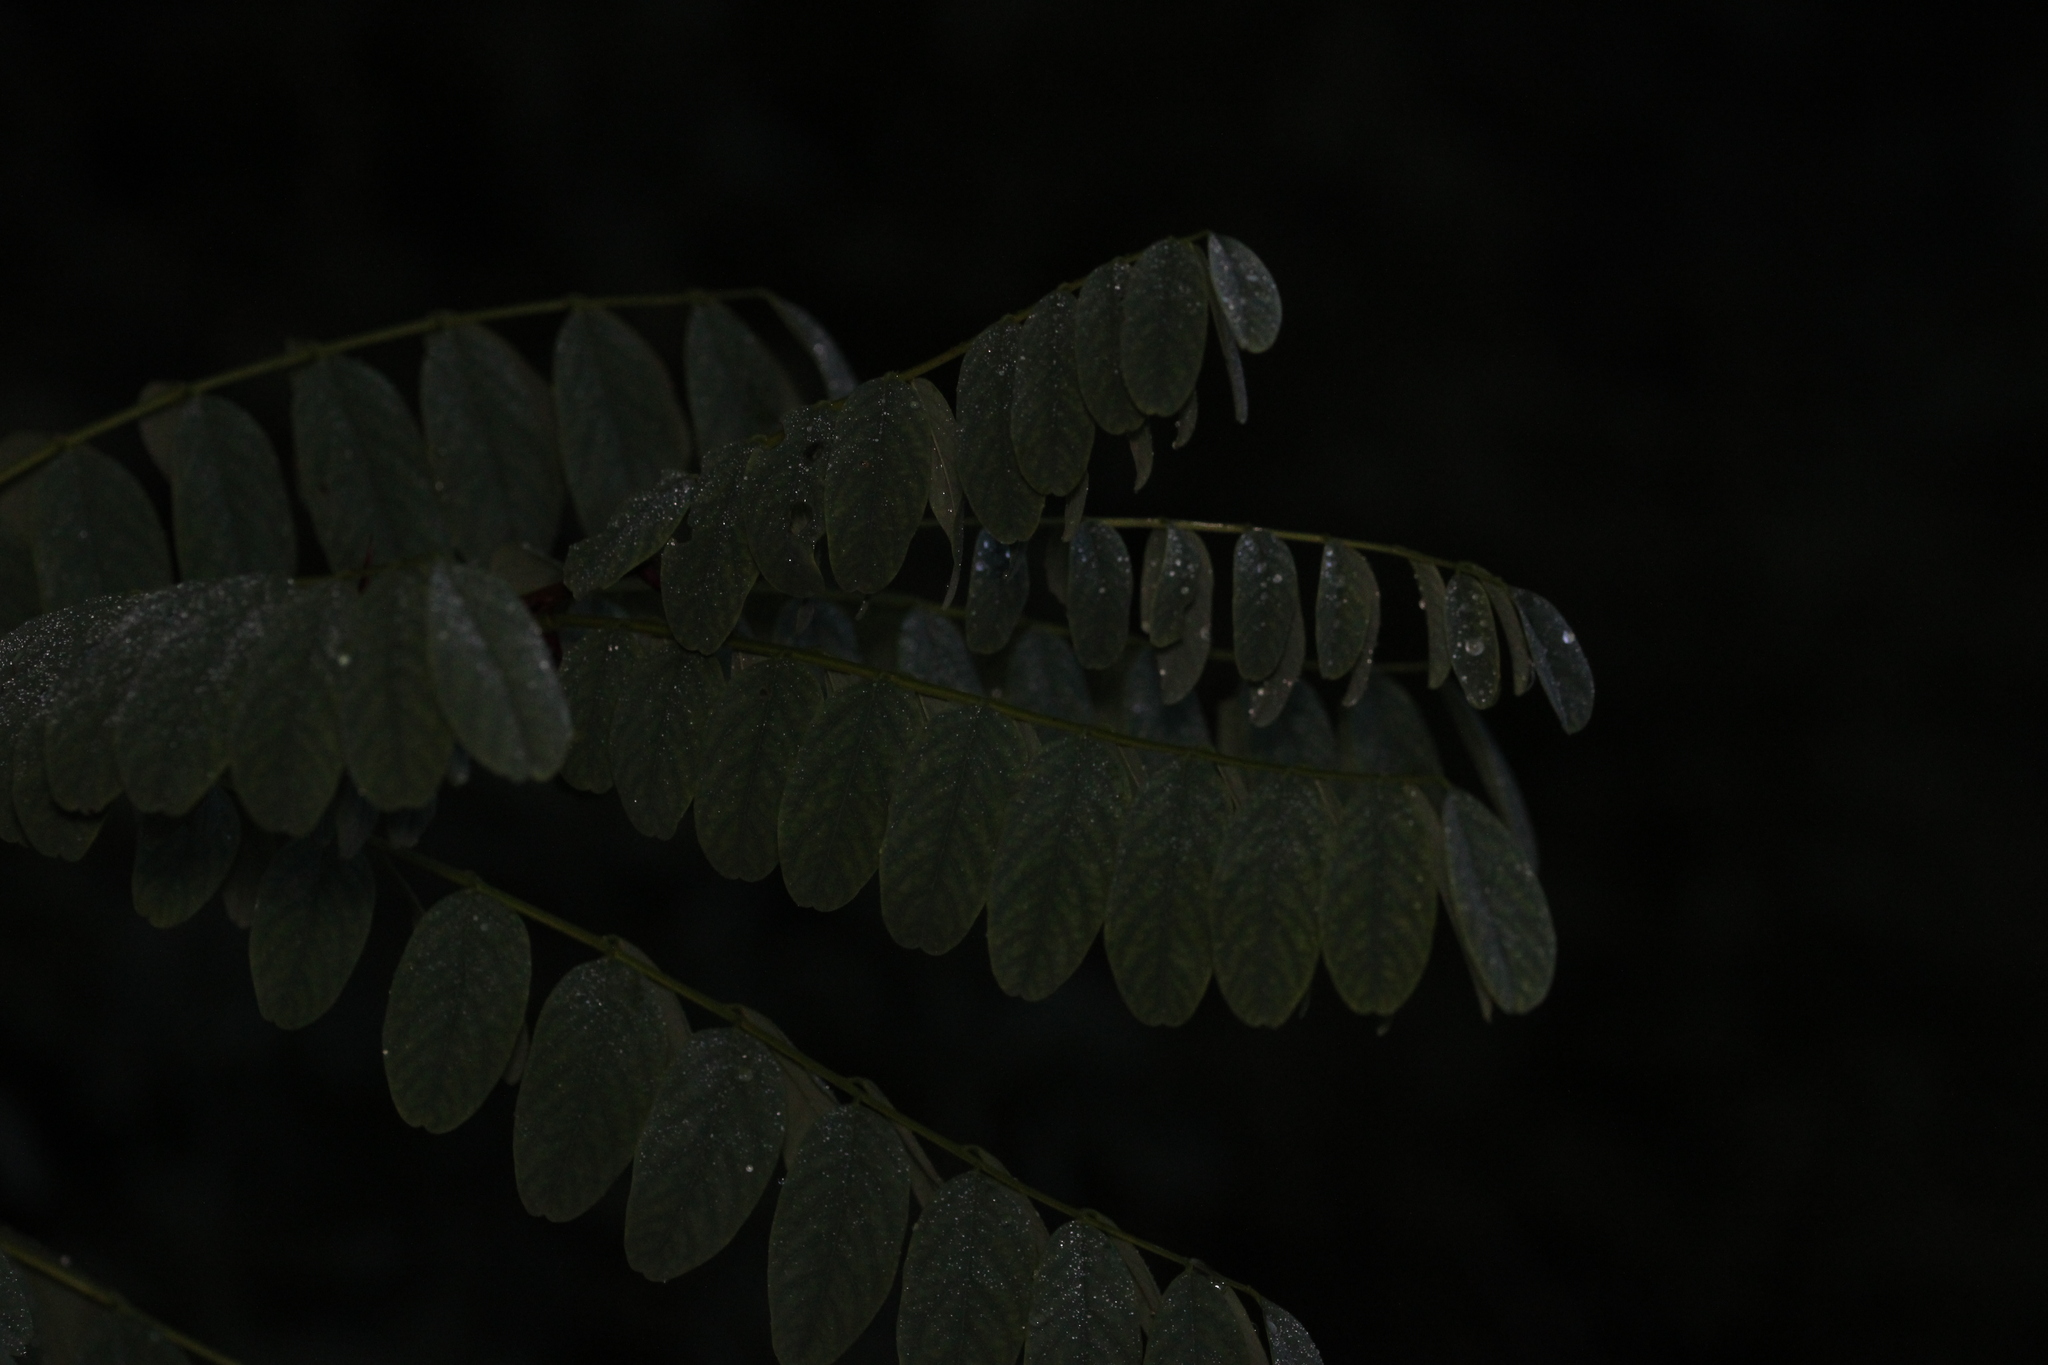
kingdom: Plantae
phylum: Tracheophyta
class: Magnoliopsida
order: Fabales
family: Fabaceae
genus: Robinia
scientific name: Robinia pseudoacacia
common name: Black locust
